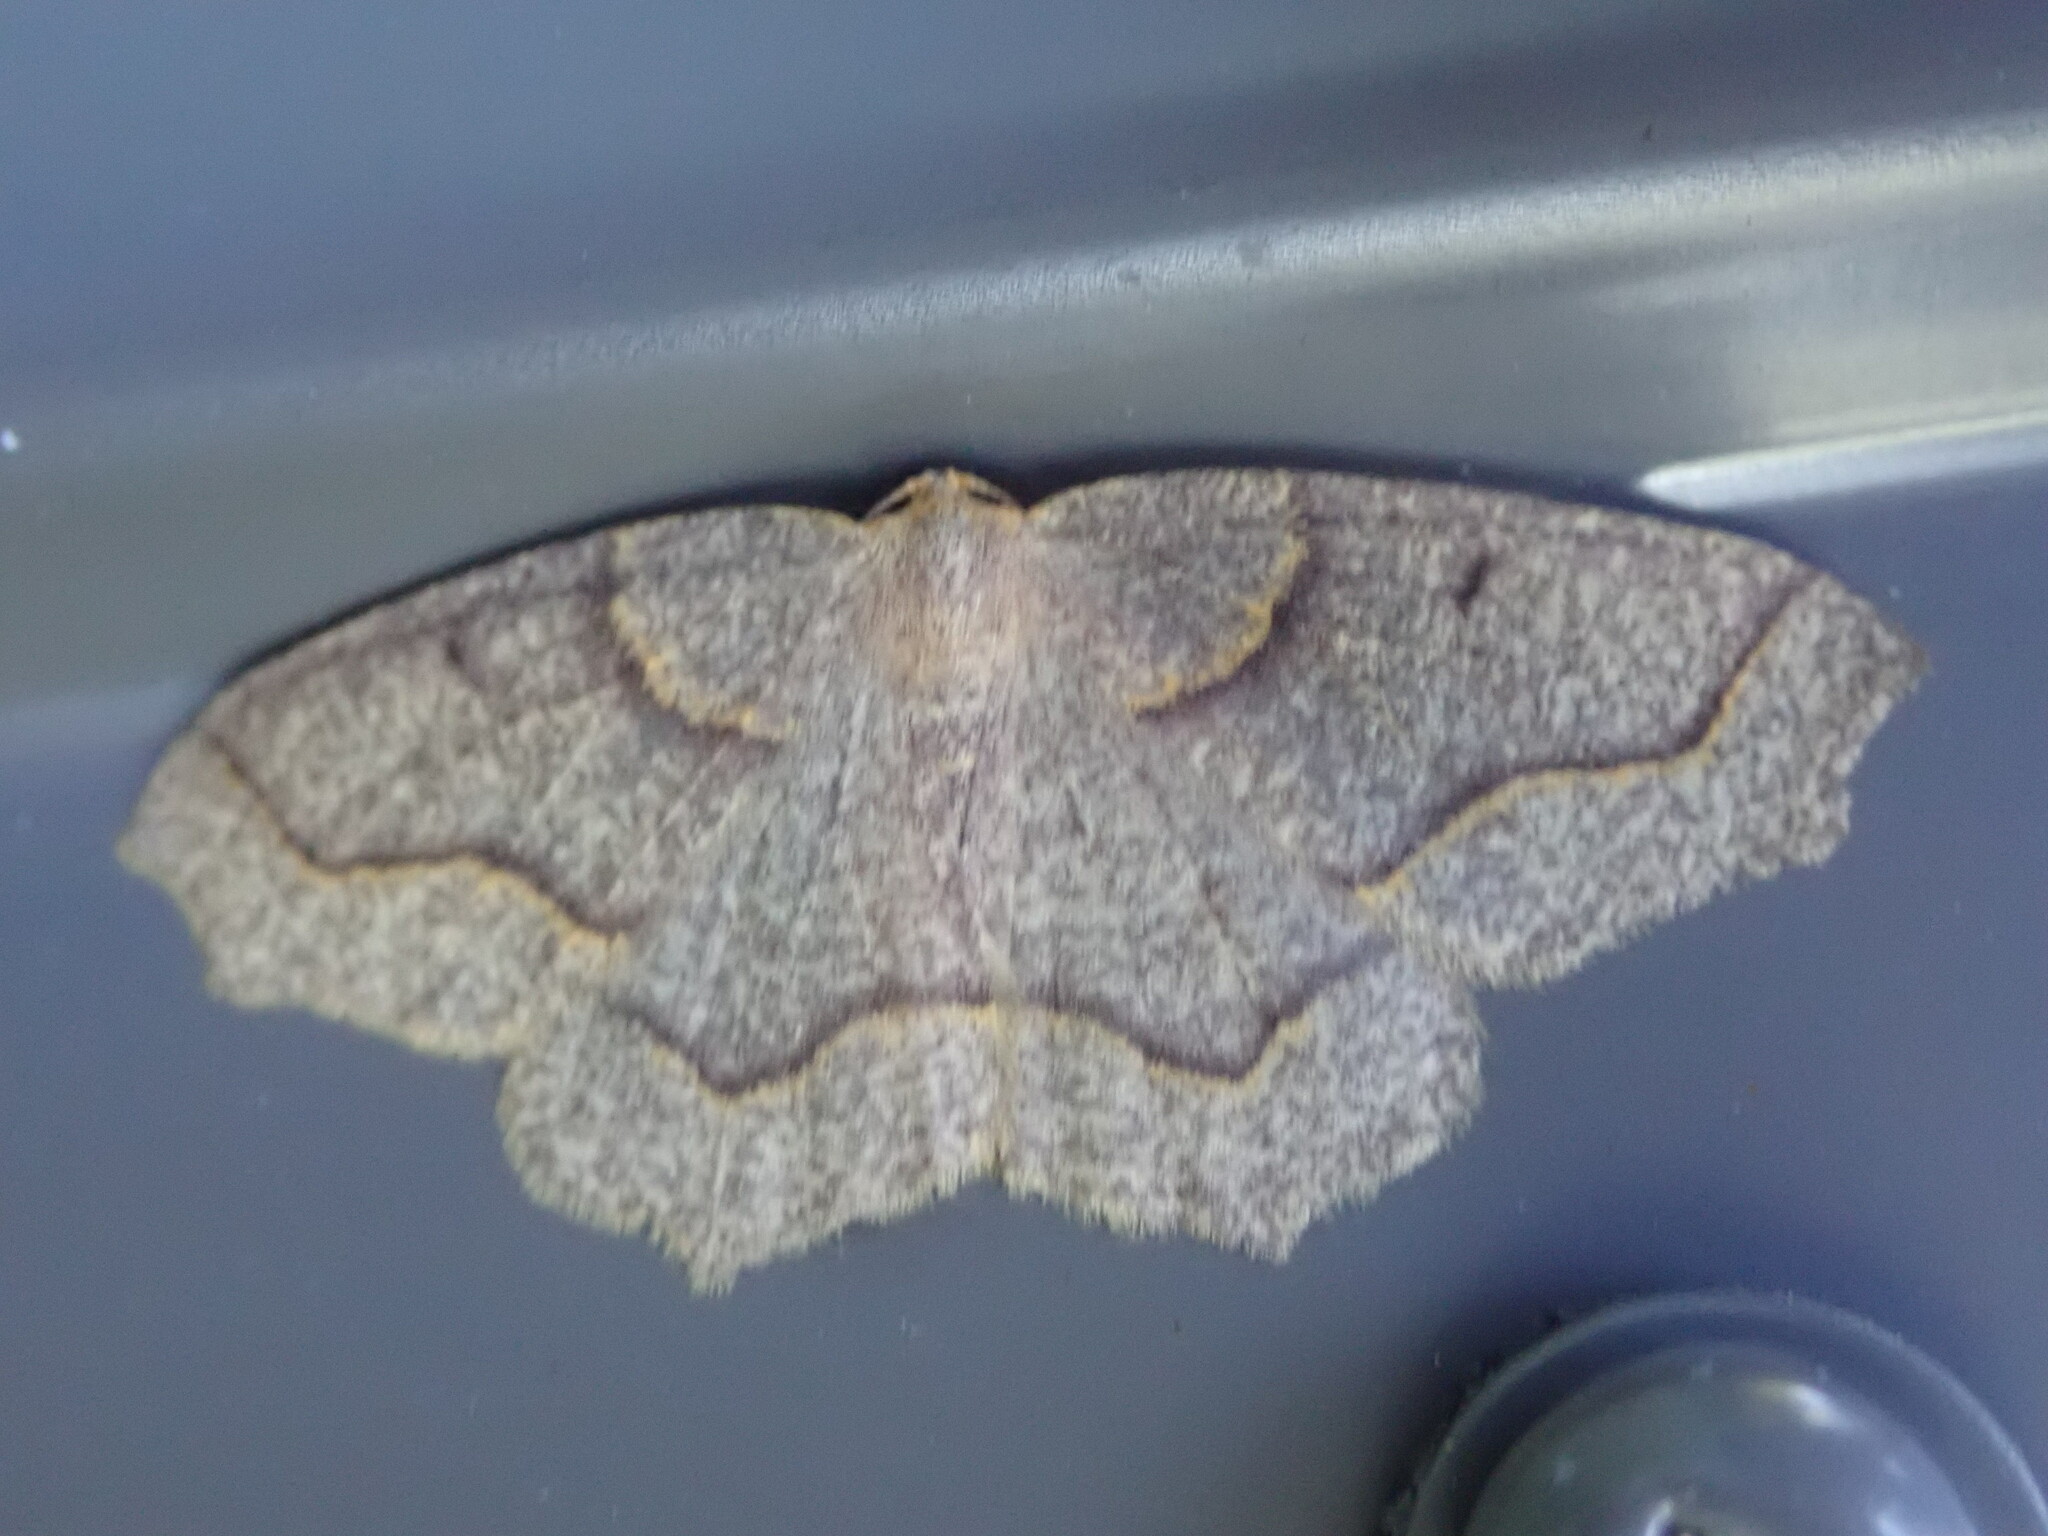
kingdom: Animalia
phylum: Arthropoda
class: Insecta
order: Lepidoptera
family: Geometridae
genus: Lambdina
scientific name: Lambdina fiscellaria
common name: Hemlock looper
